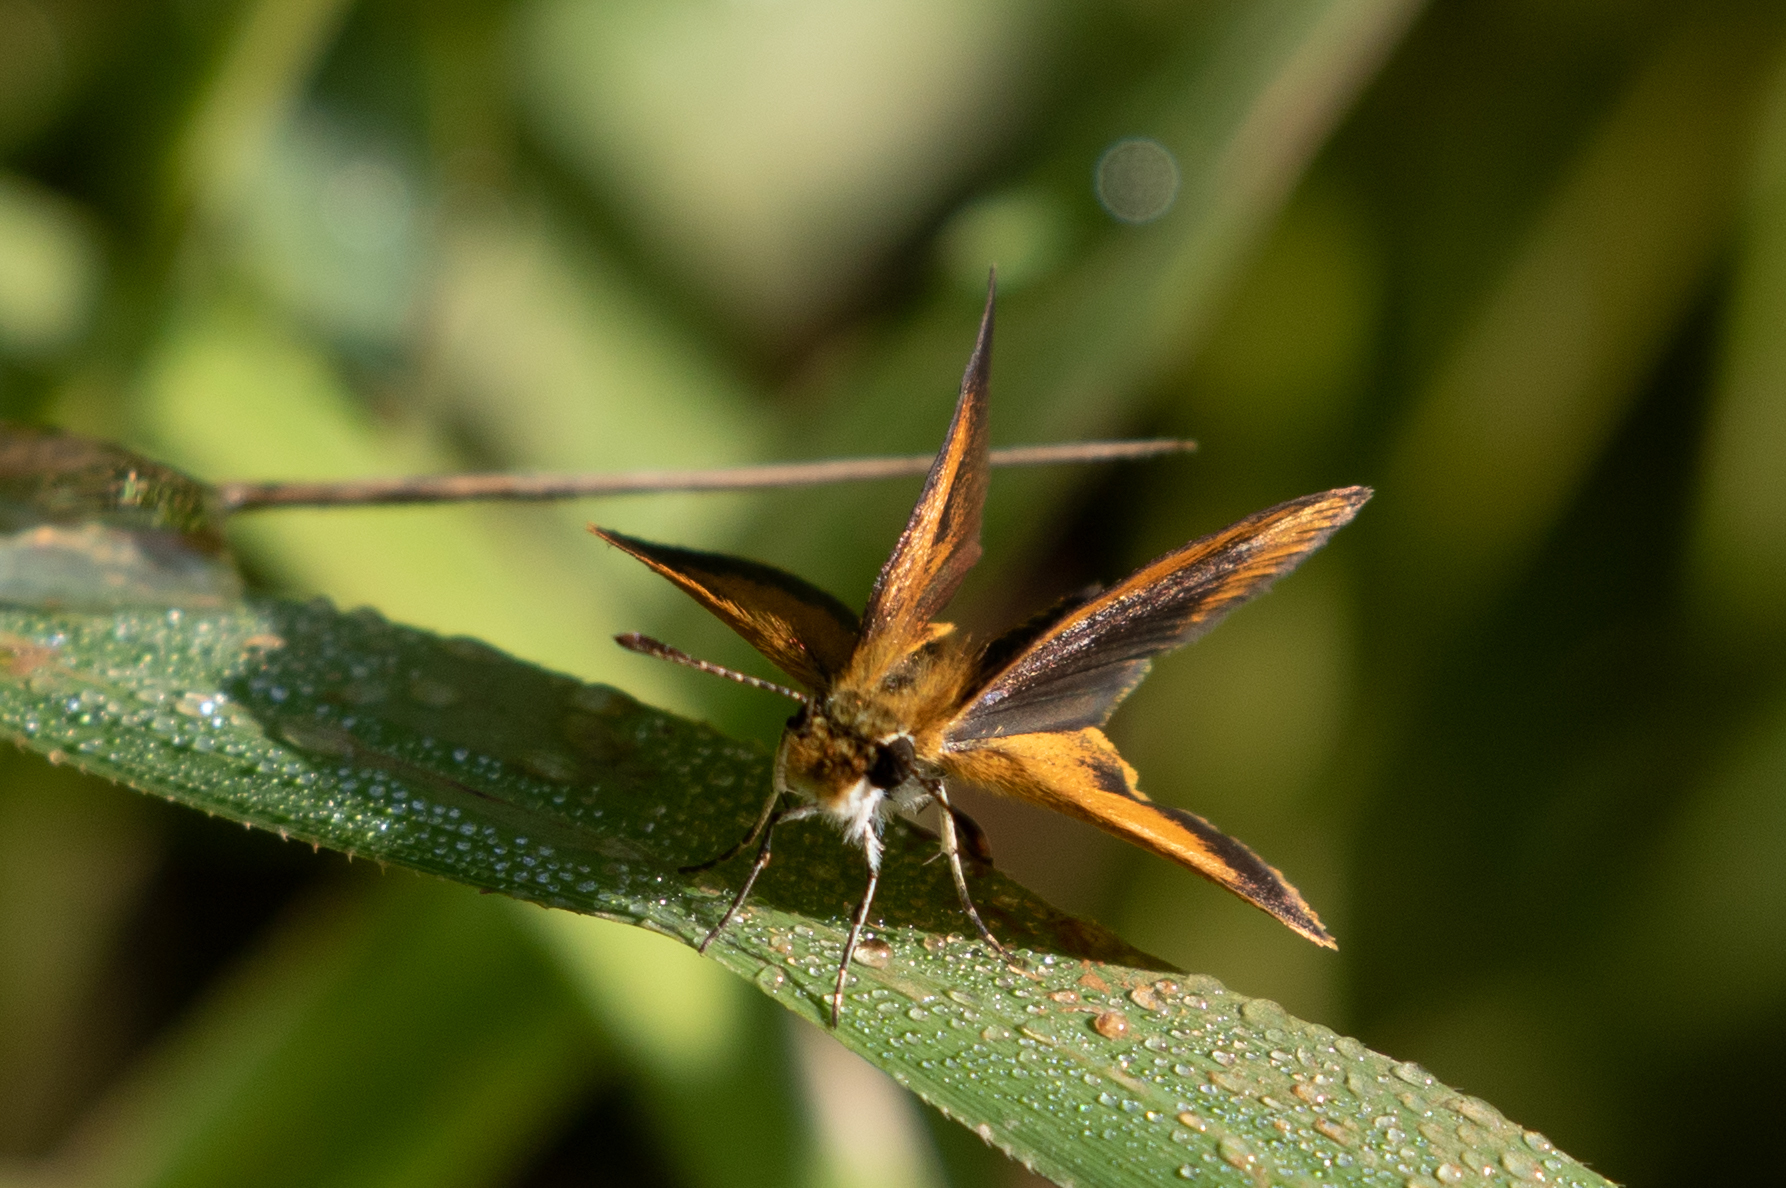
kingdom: Animalia
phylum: Arthropoda
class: Insecta
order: Lepidoptera
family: Hesperiidae
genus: Ancyloxypha
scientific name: Ancyloxypha numitor
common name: Least skipper
